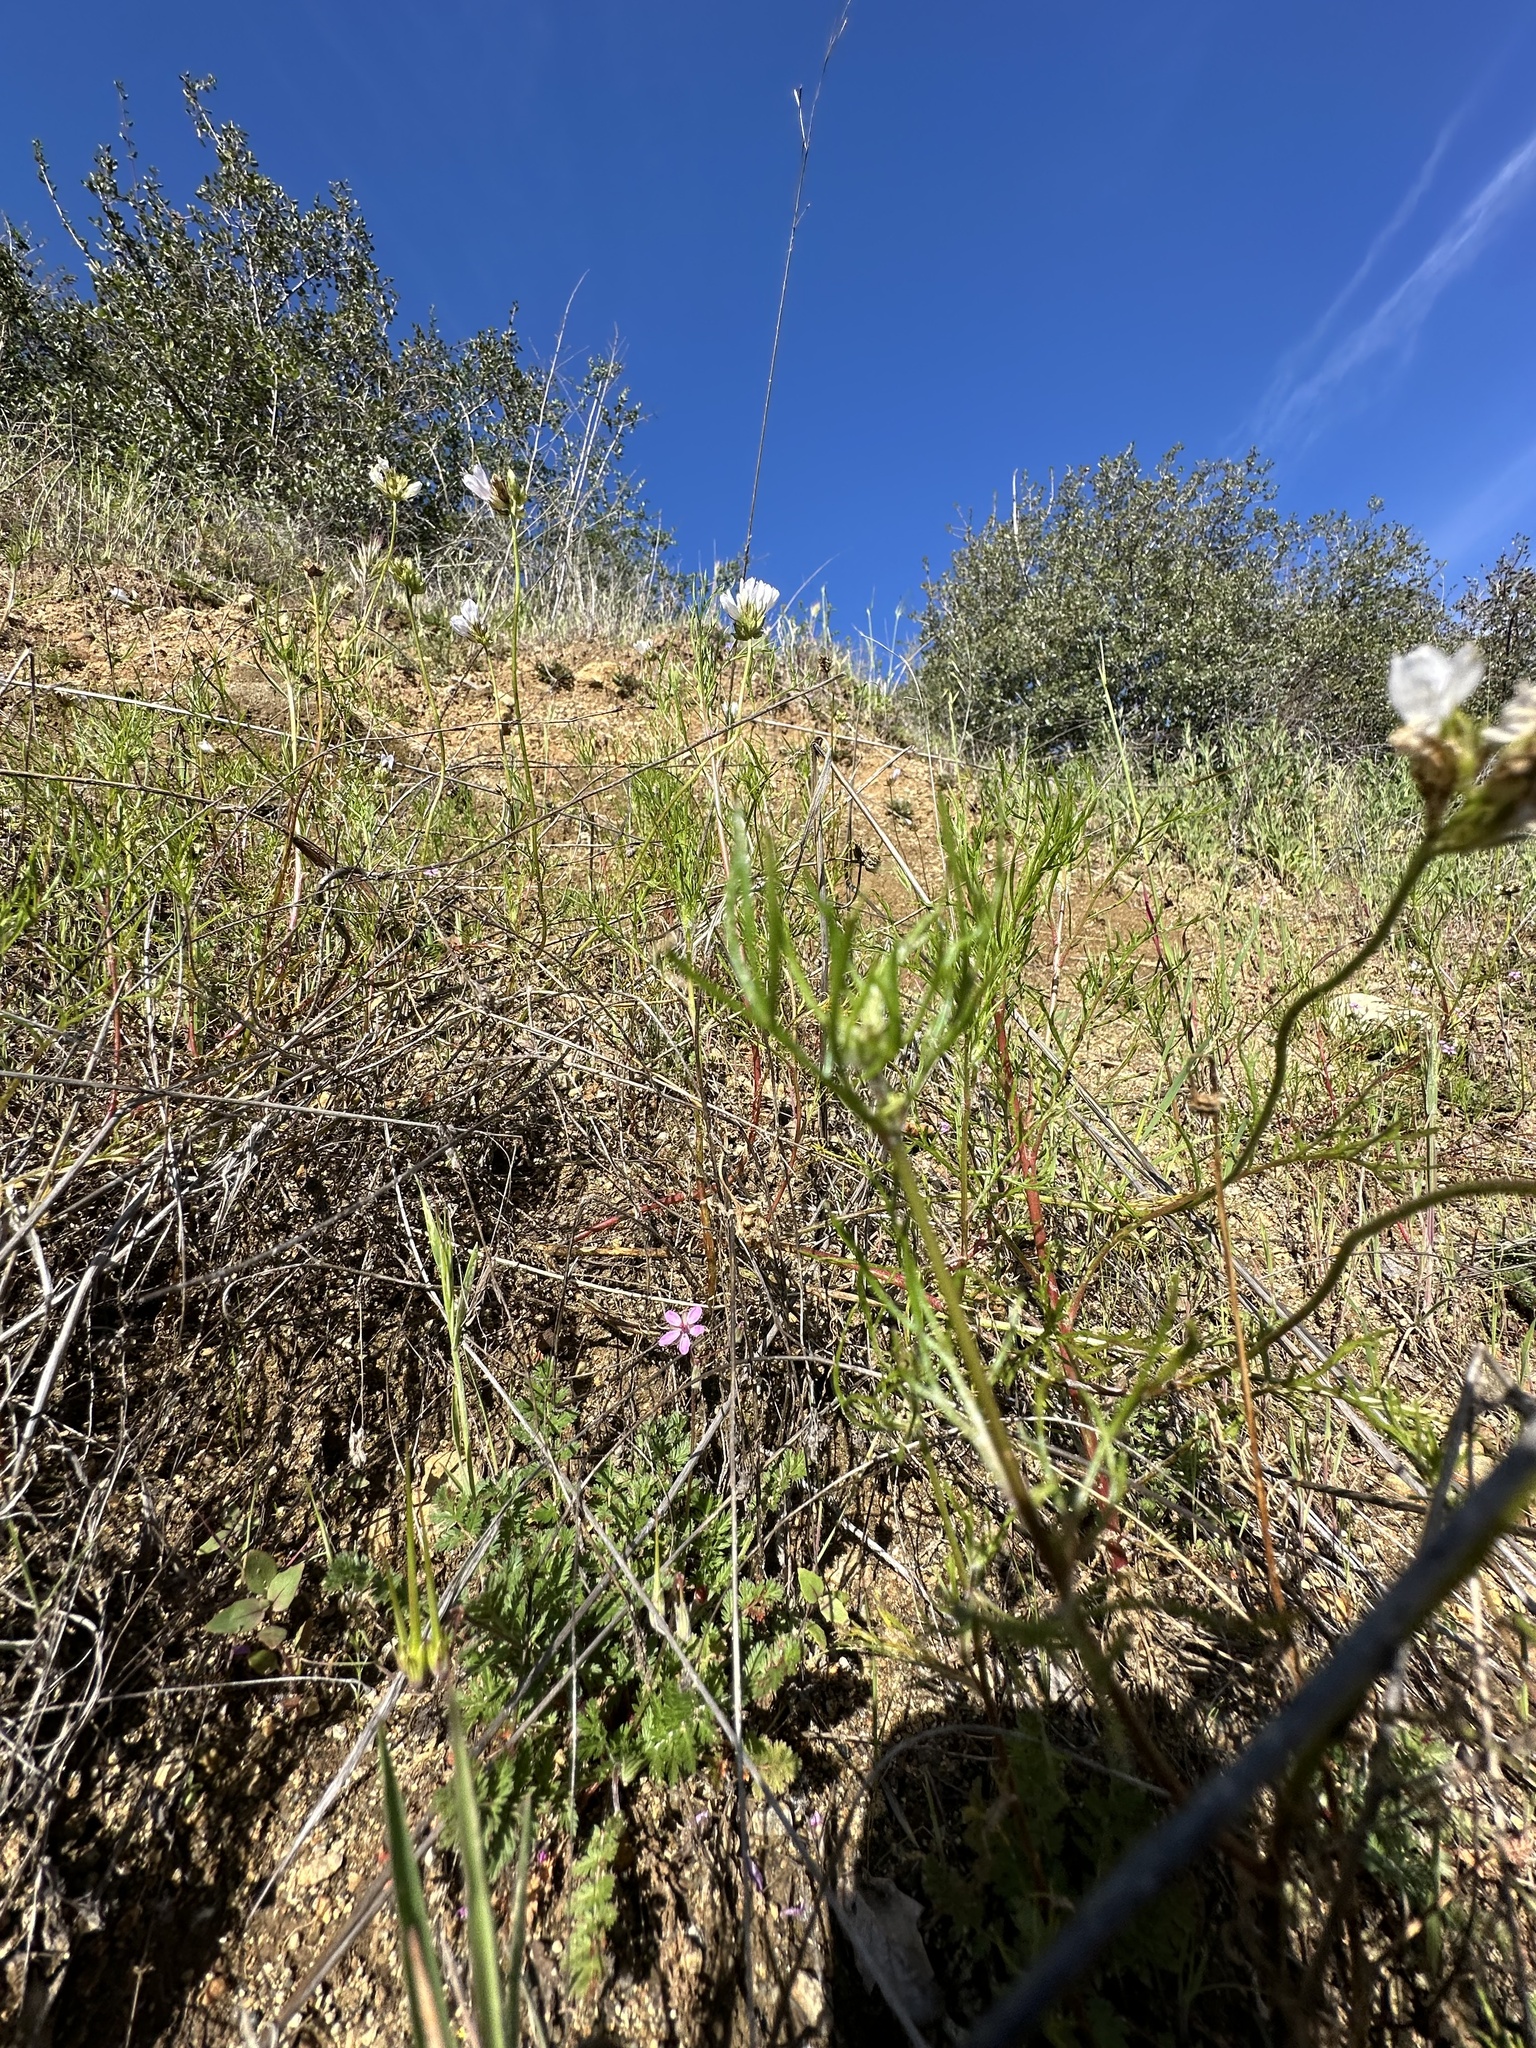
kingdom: Plantae
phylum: Tracheophyta
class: Magnoliopsida
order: Ericales
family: Polemoniaceae
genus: Gilia
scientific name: Gilia angelensis
